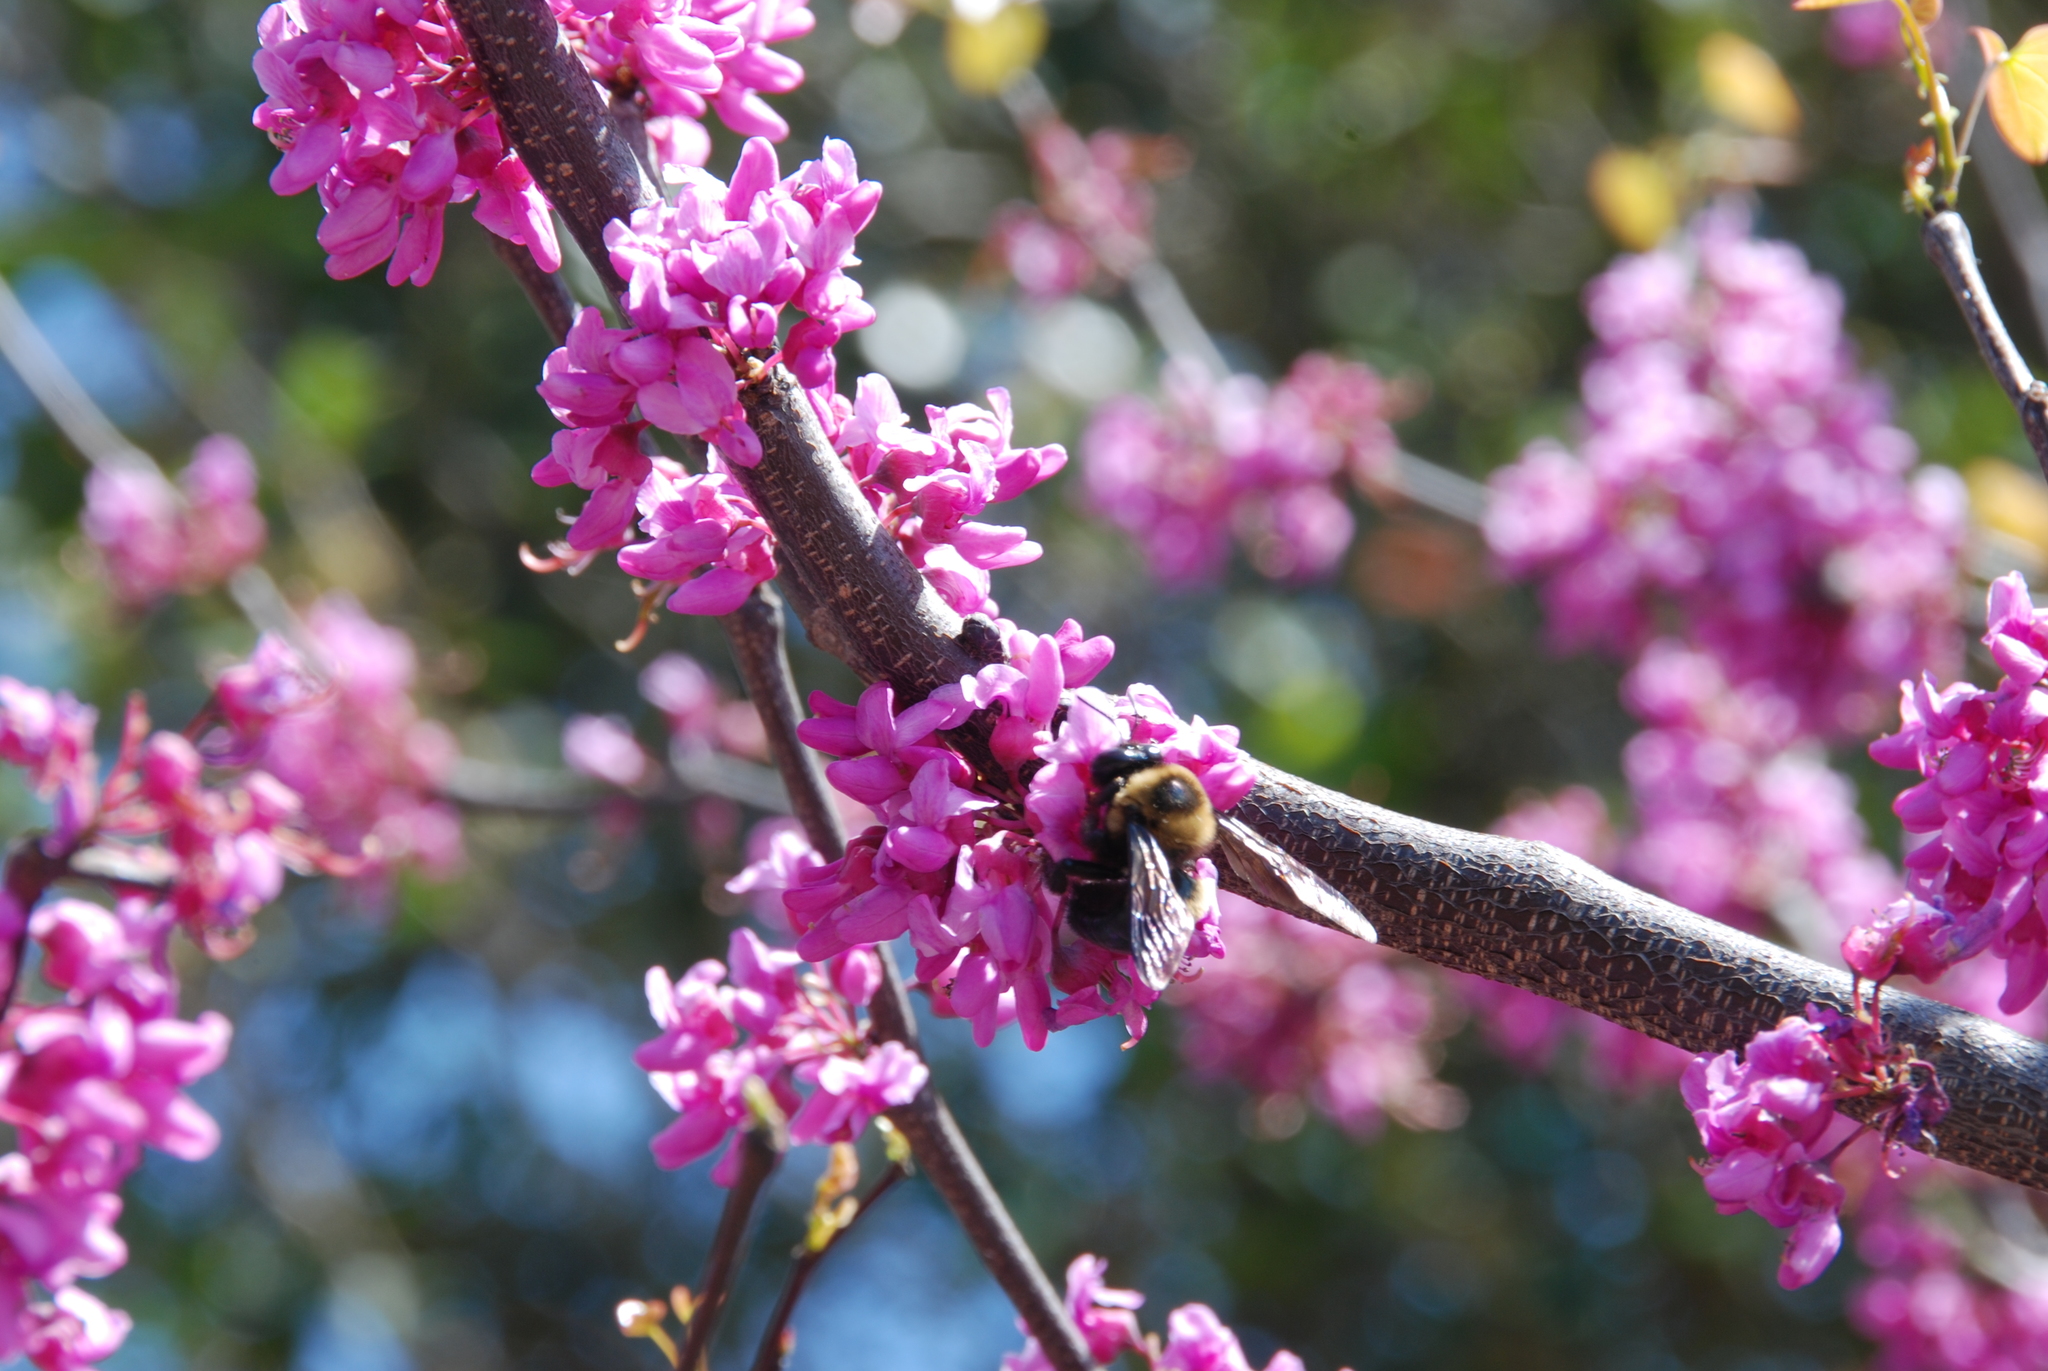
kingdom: Animalia
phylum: Arthropoda
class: Insecta
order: Hymenoptera
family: Apidae
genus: Xylocopa
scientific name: Xylocopa virginica
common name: Carpenter bee
